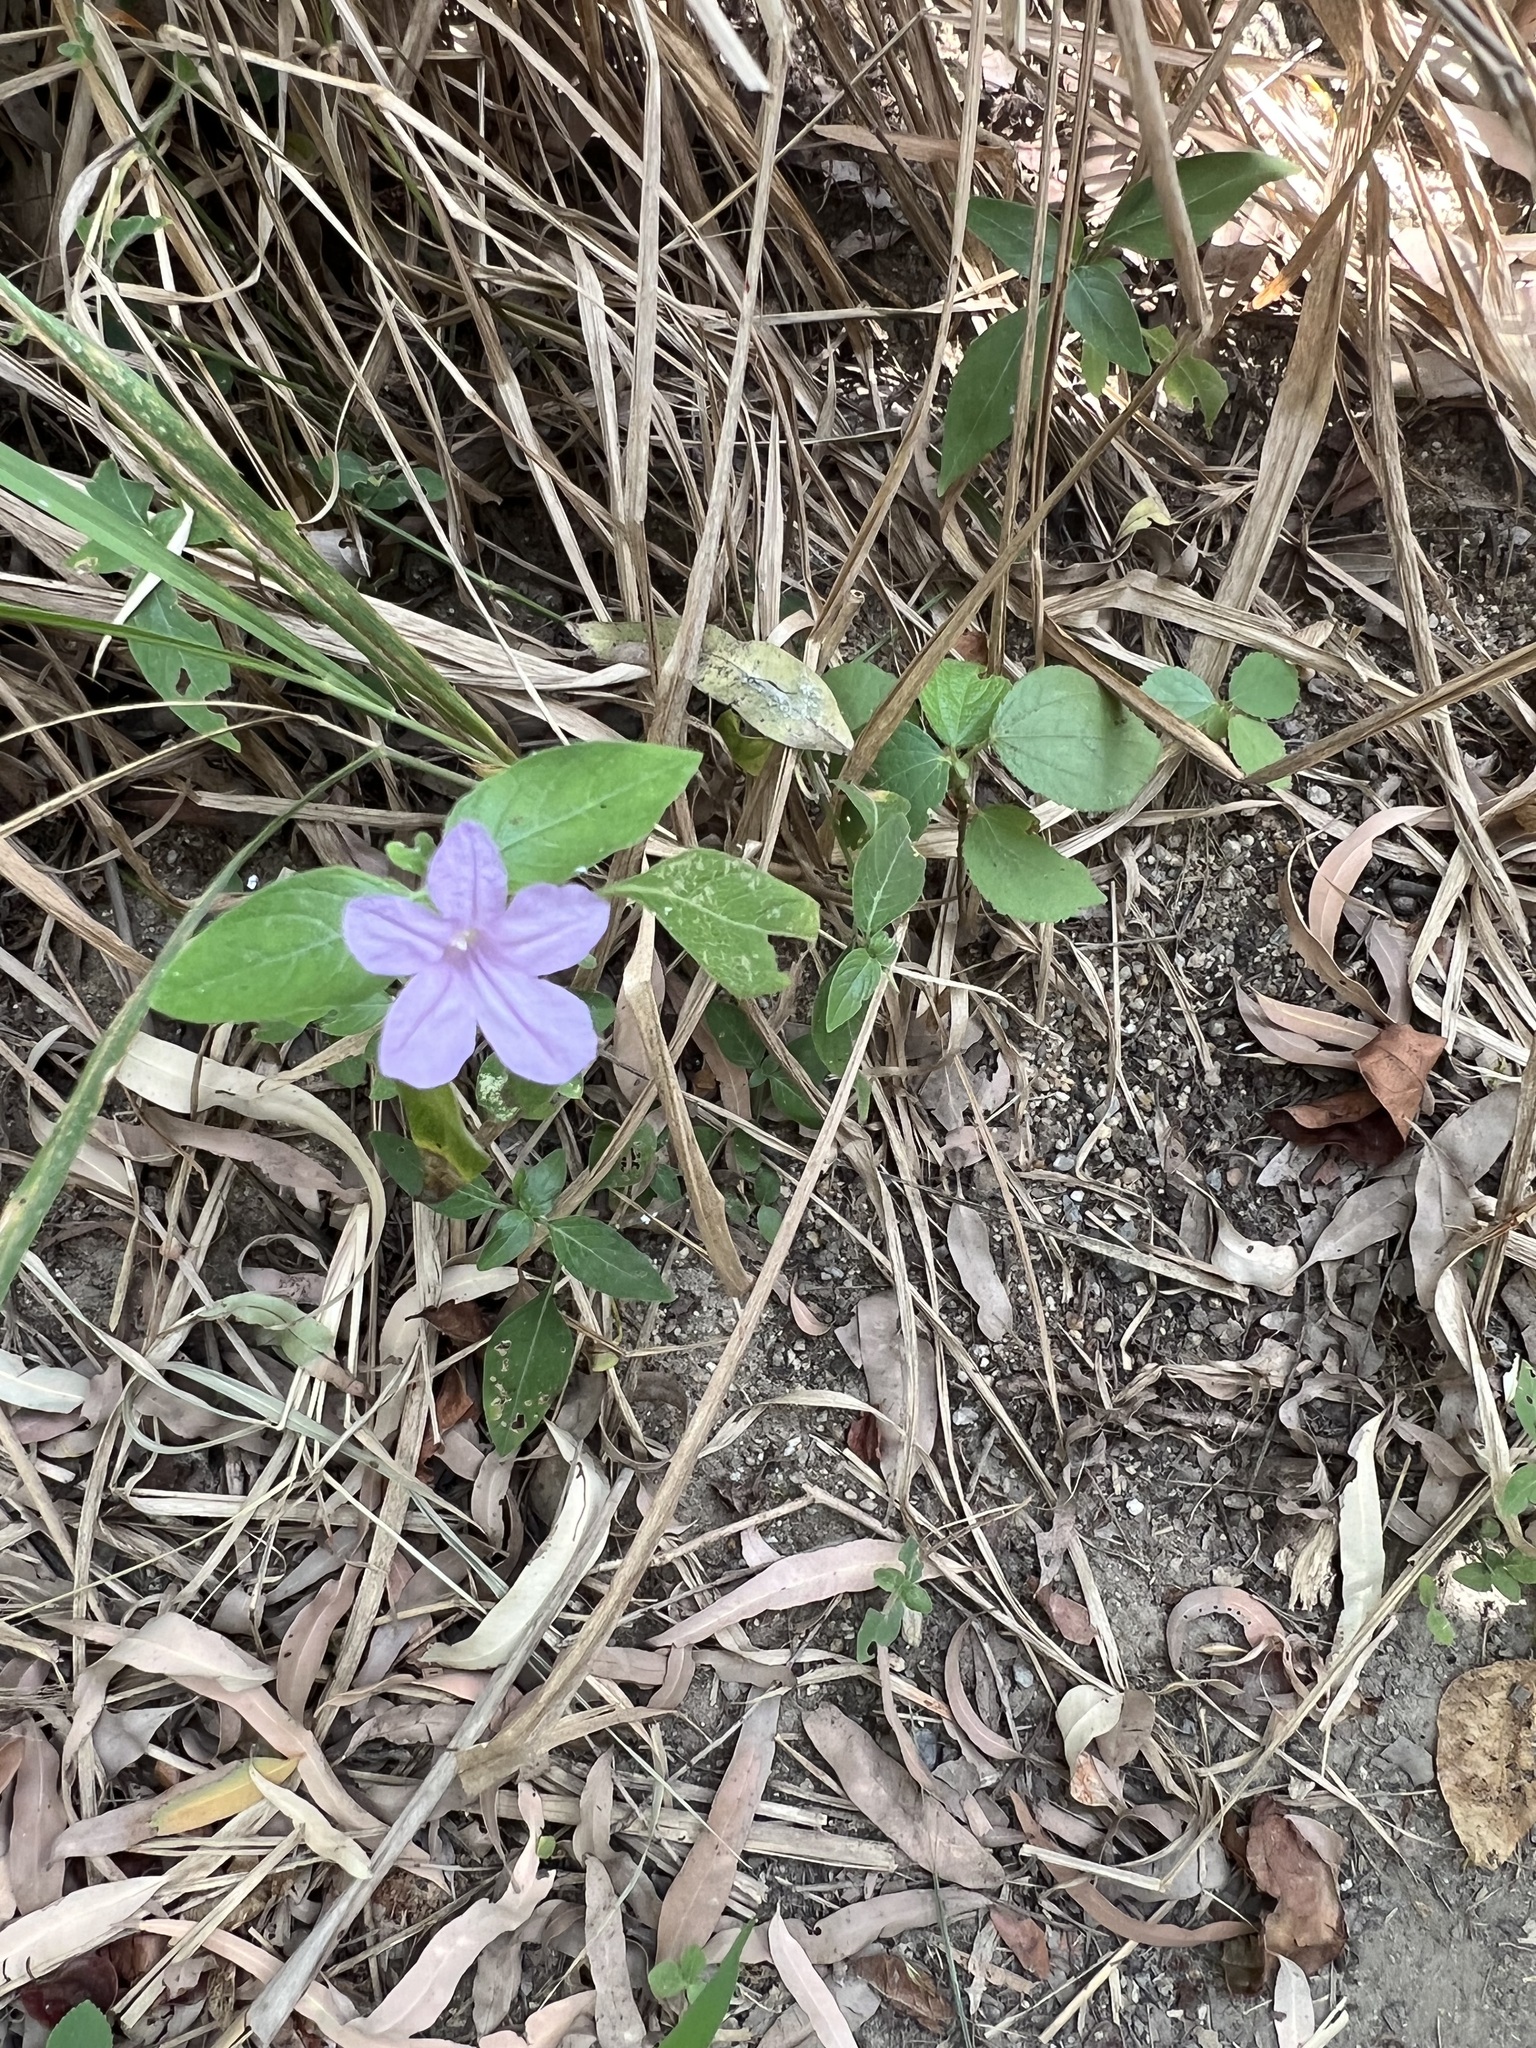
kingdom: Plantae
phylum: Tracheophyta
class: Magnoliopsida
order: Lamiales
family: Acanthaceae
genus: Ruellia
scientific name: Ruellia prostrata
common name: Prostrate wild petunia
